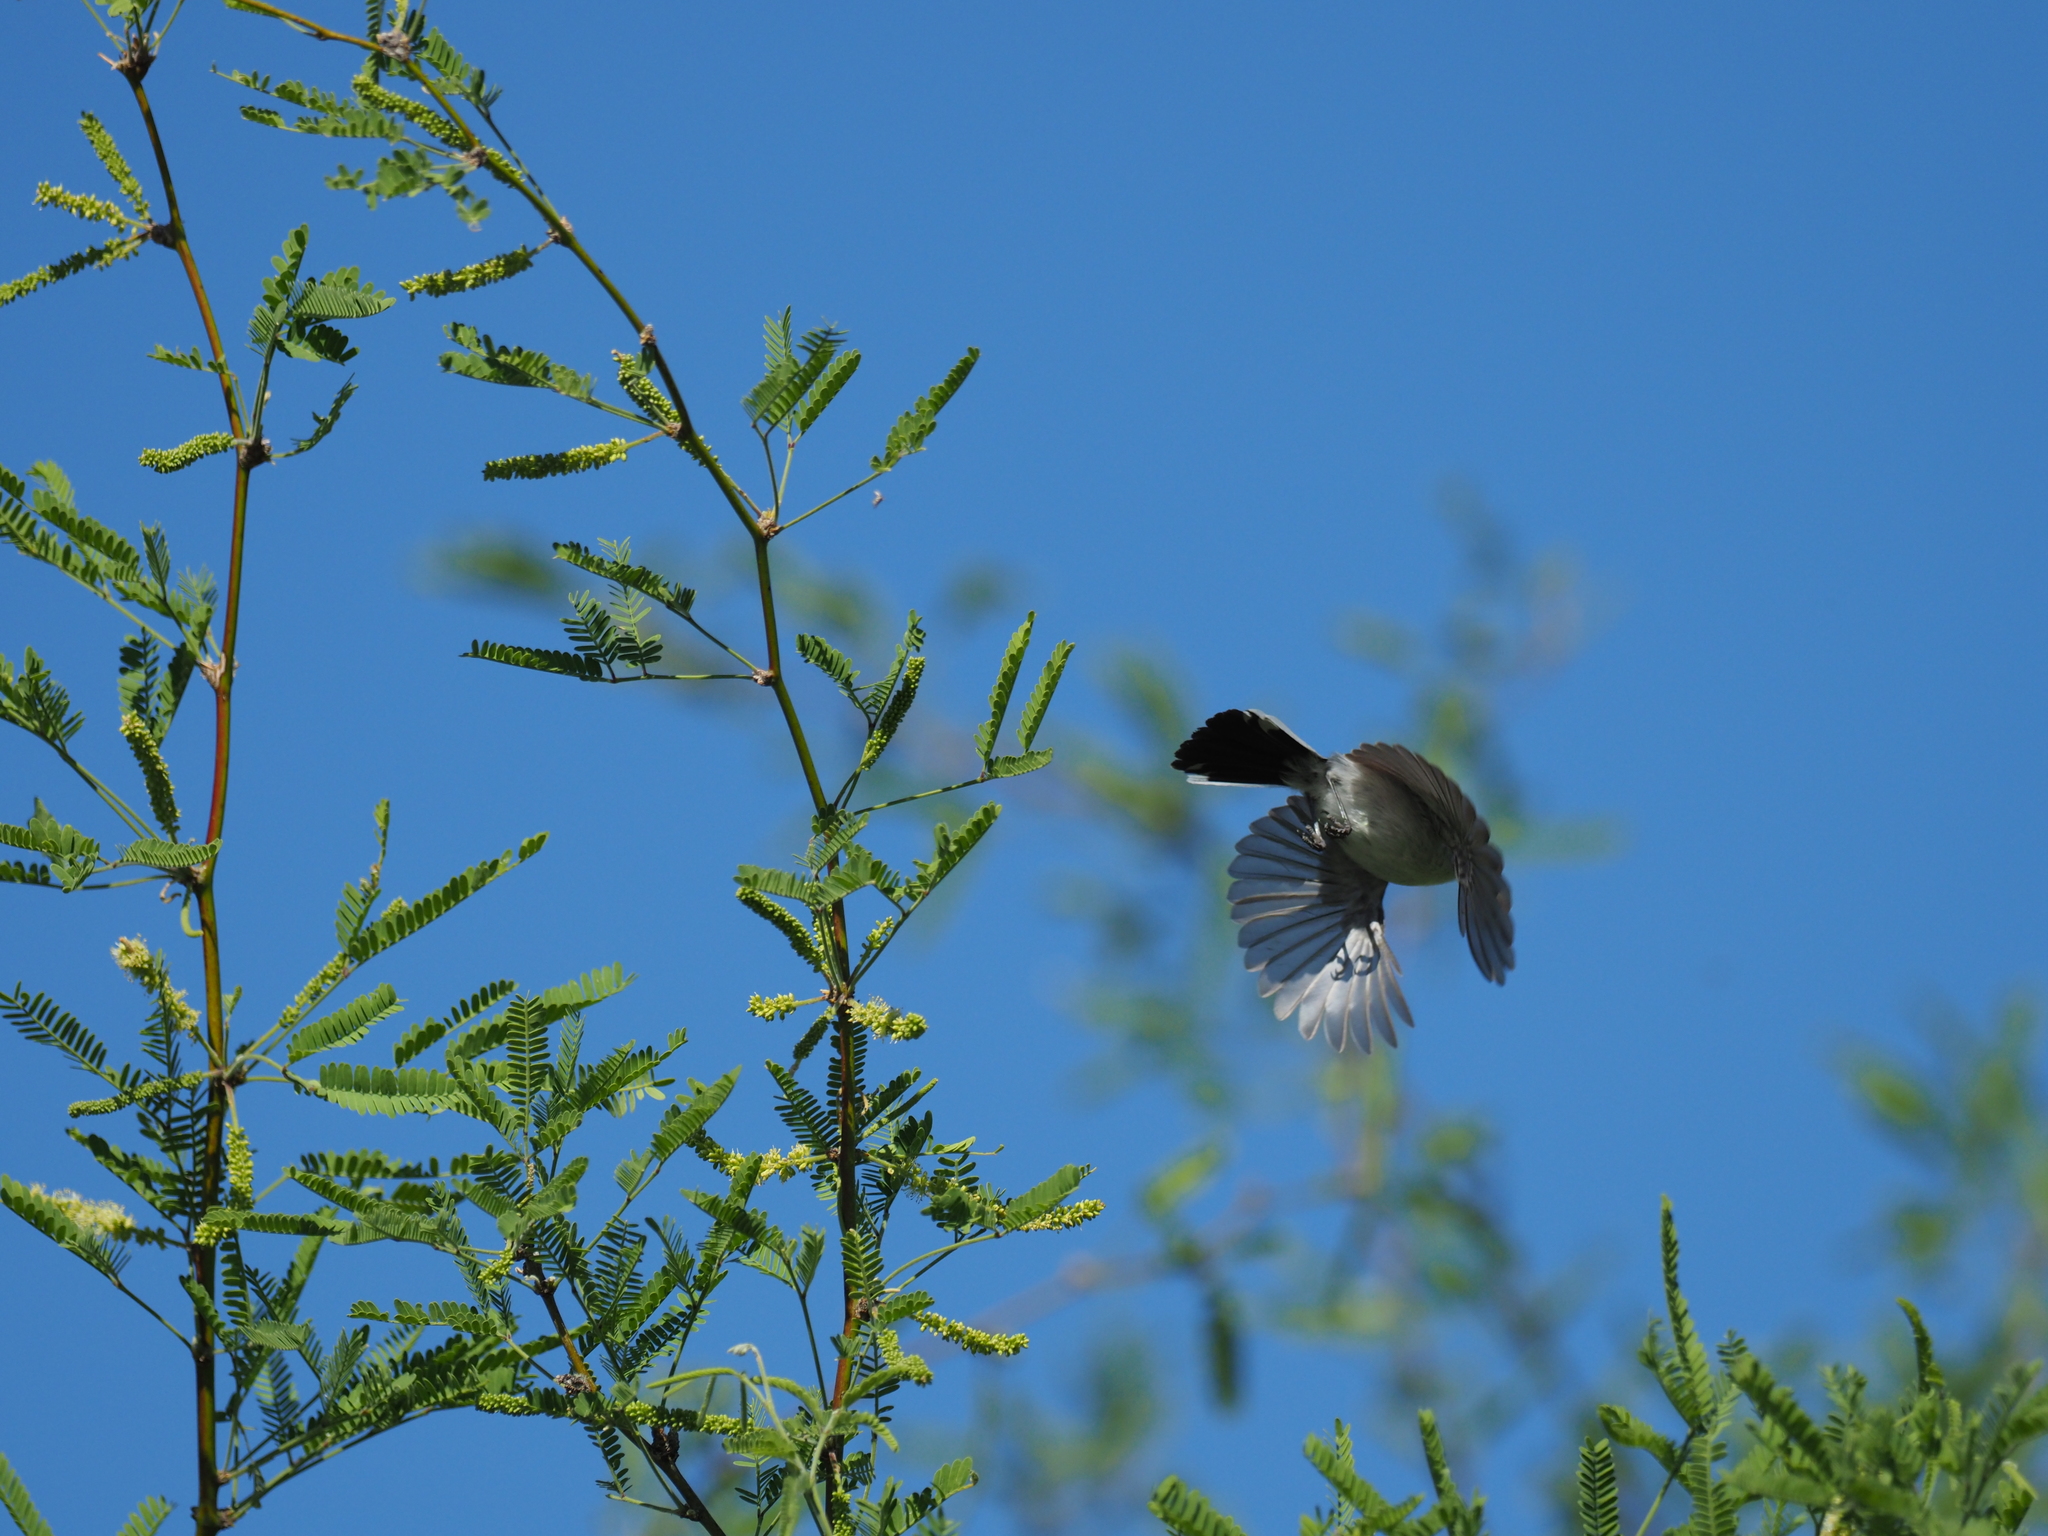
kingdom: Animalia
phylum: Chordata
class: Aves
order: Passeriformes
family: Polioptilidae
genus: Polioptila
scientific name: Polioptila melanura
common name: Black-tailed gnatcatcher
